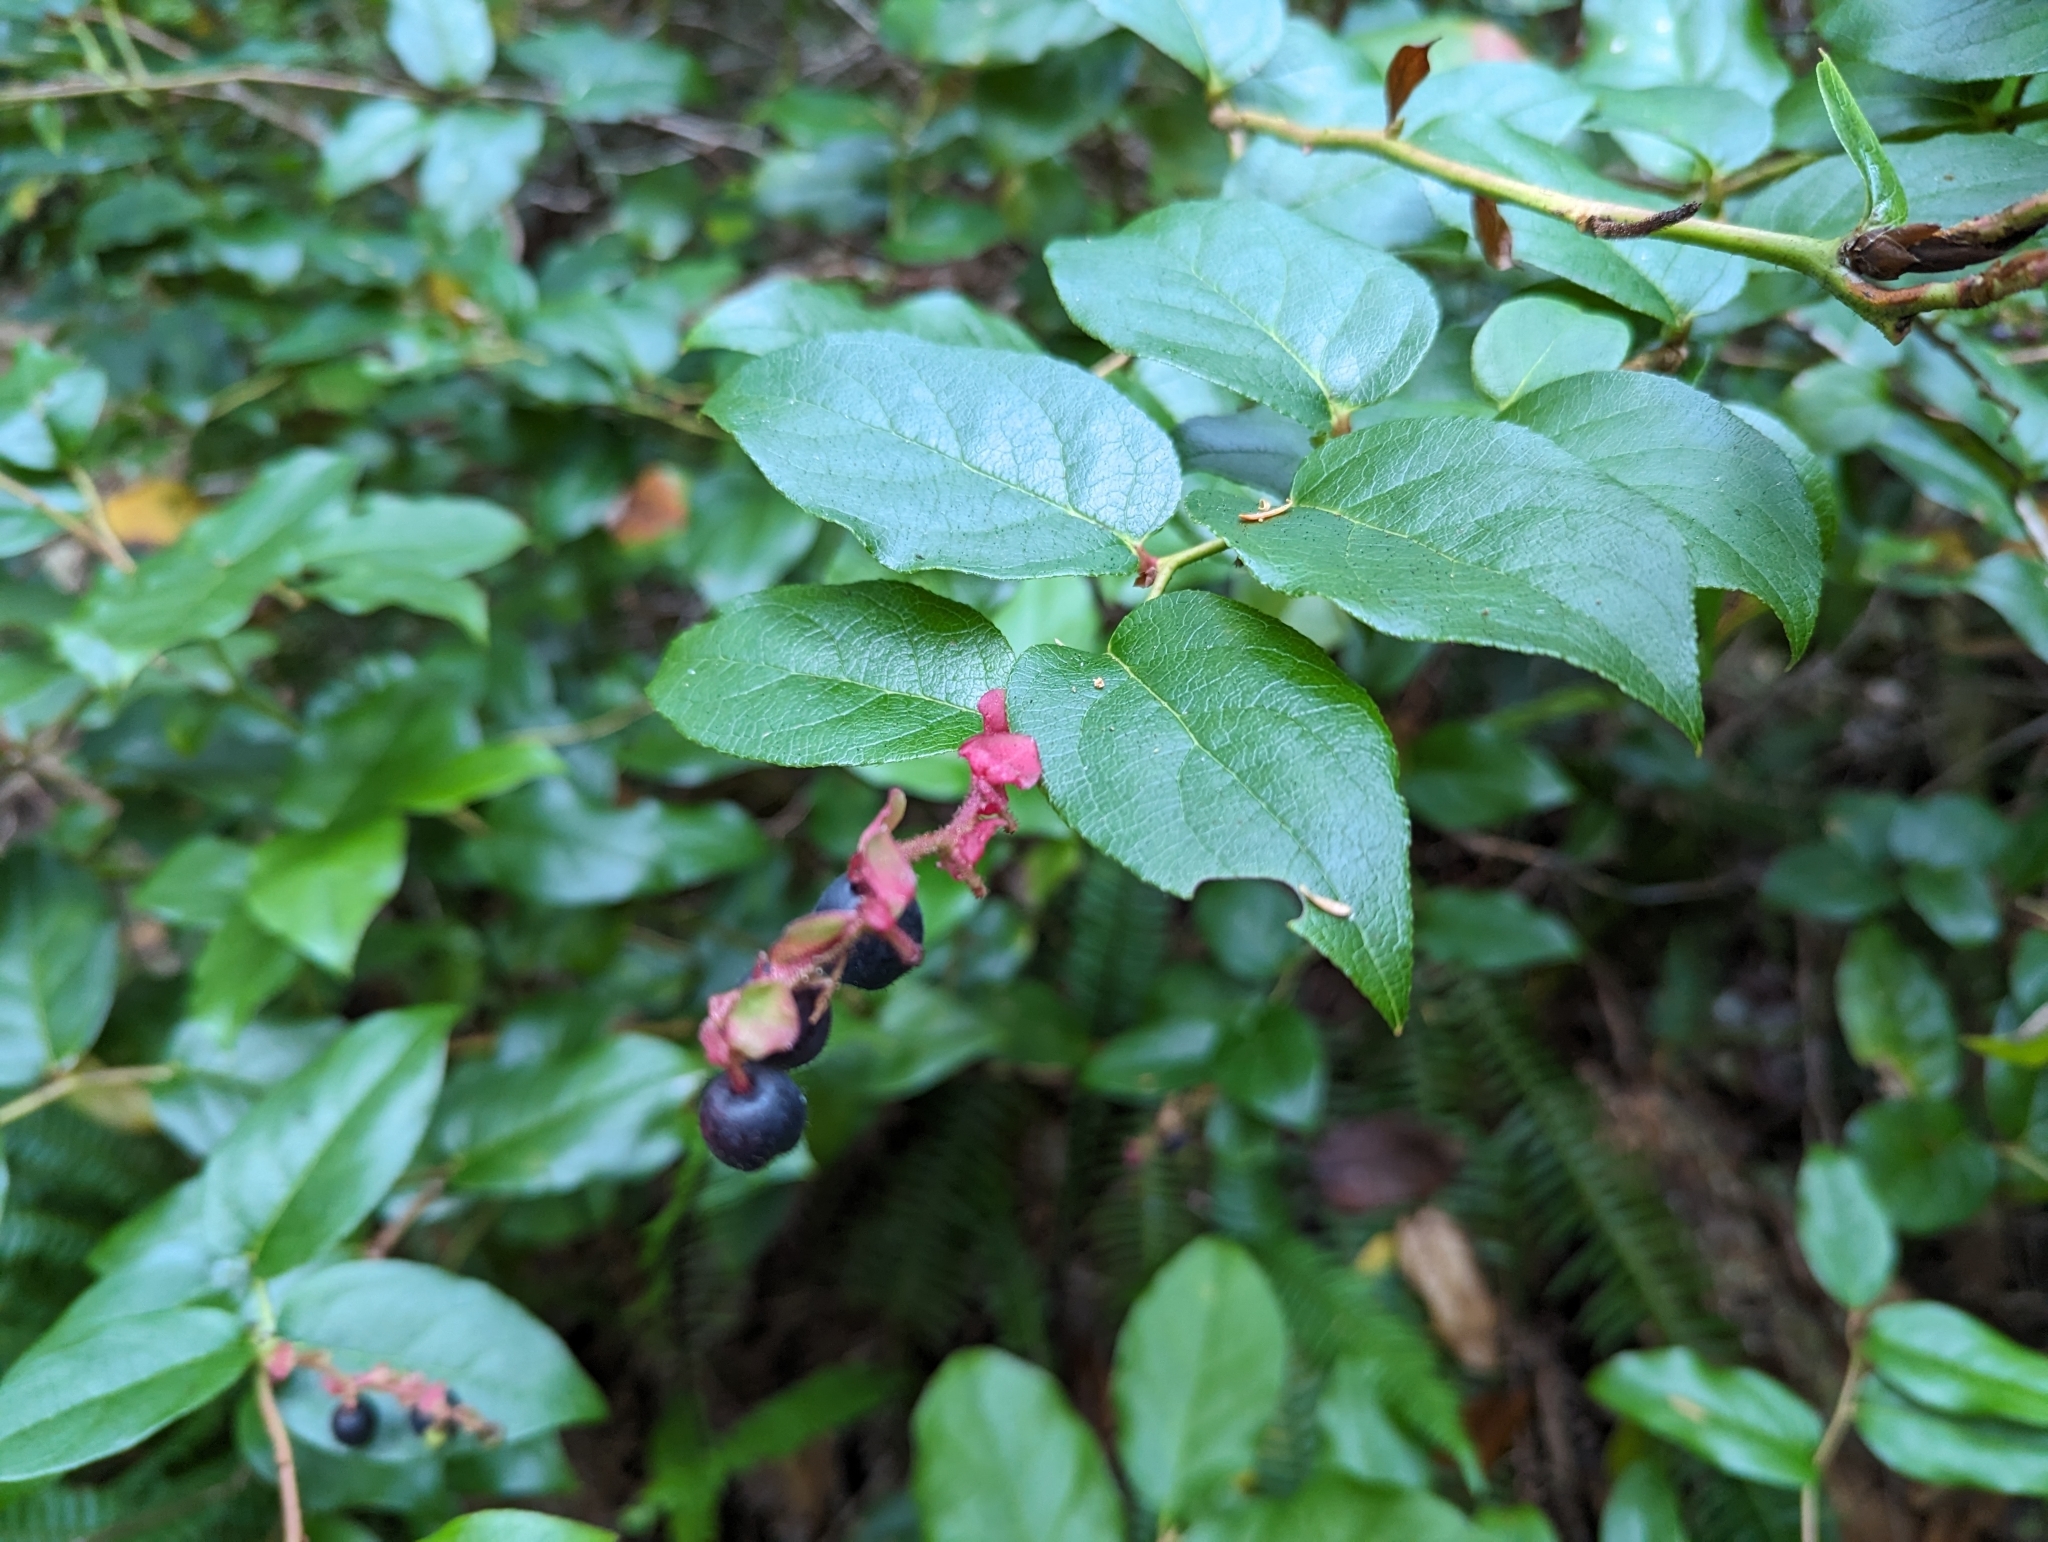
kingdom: Plantae
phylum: Tracheophyta
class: Magnoliopsida
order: Ericales
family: Ericaceae
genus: Gaultheria
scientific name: Gaultheria shallon
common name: Shallon
